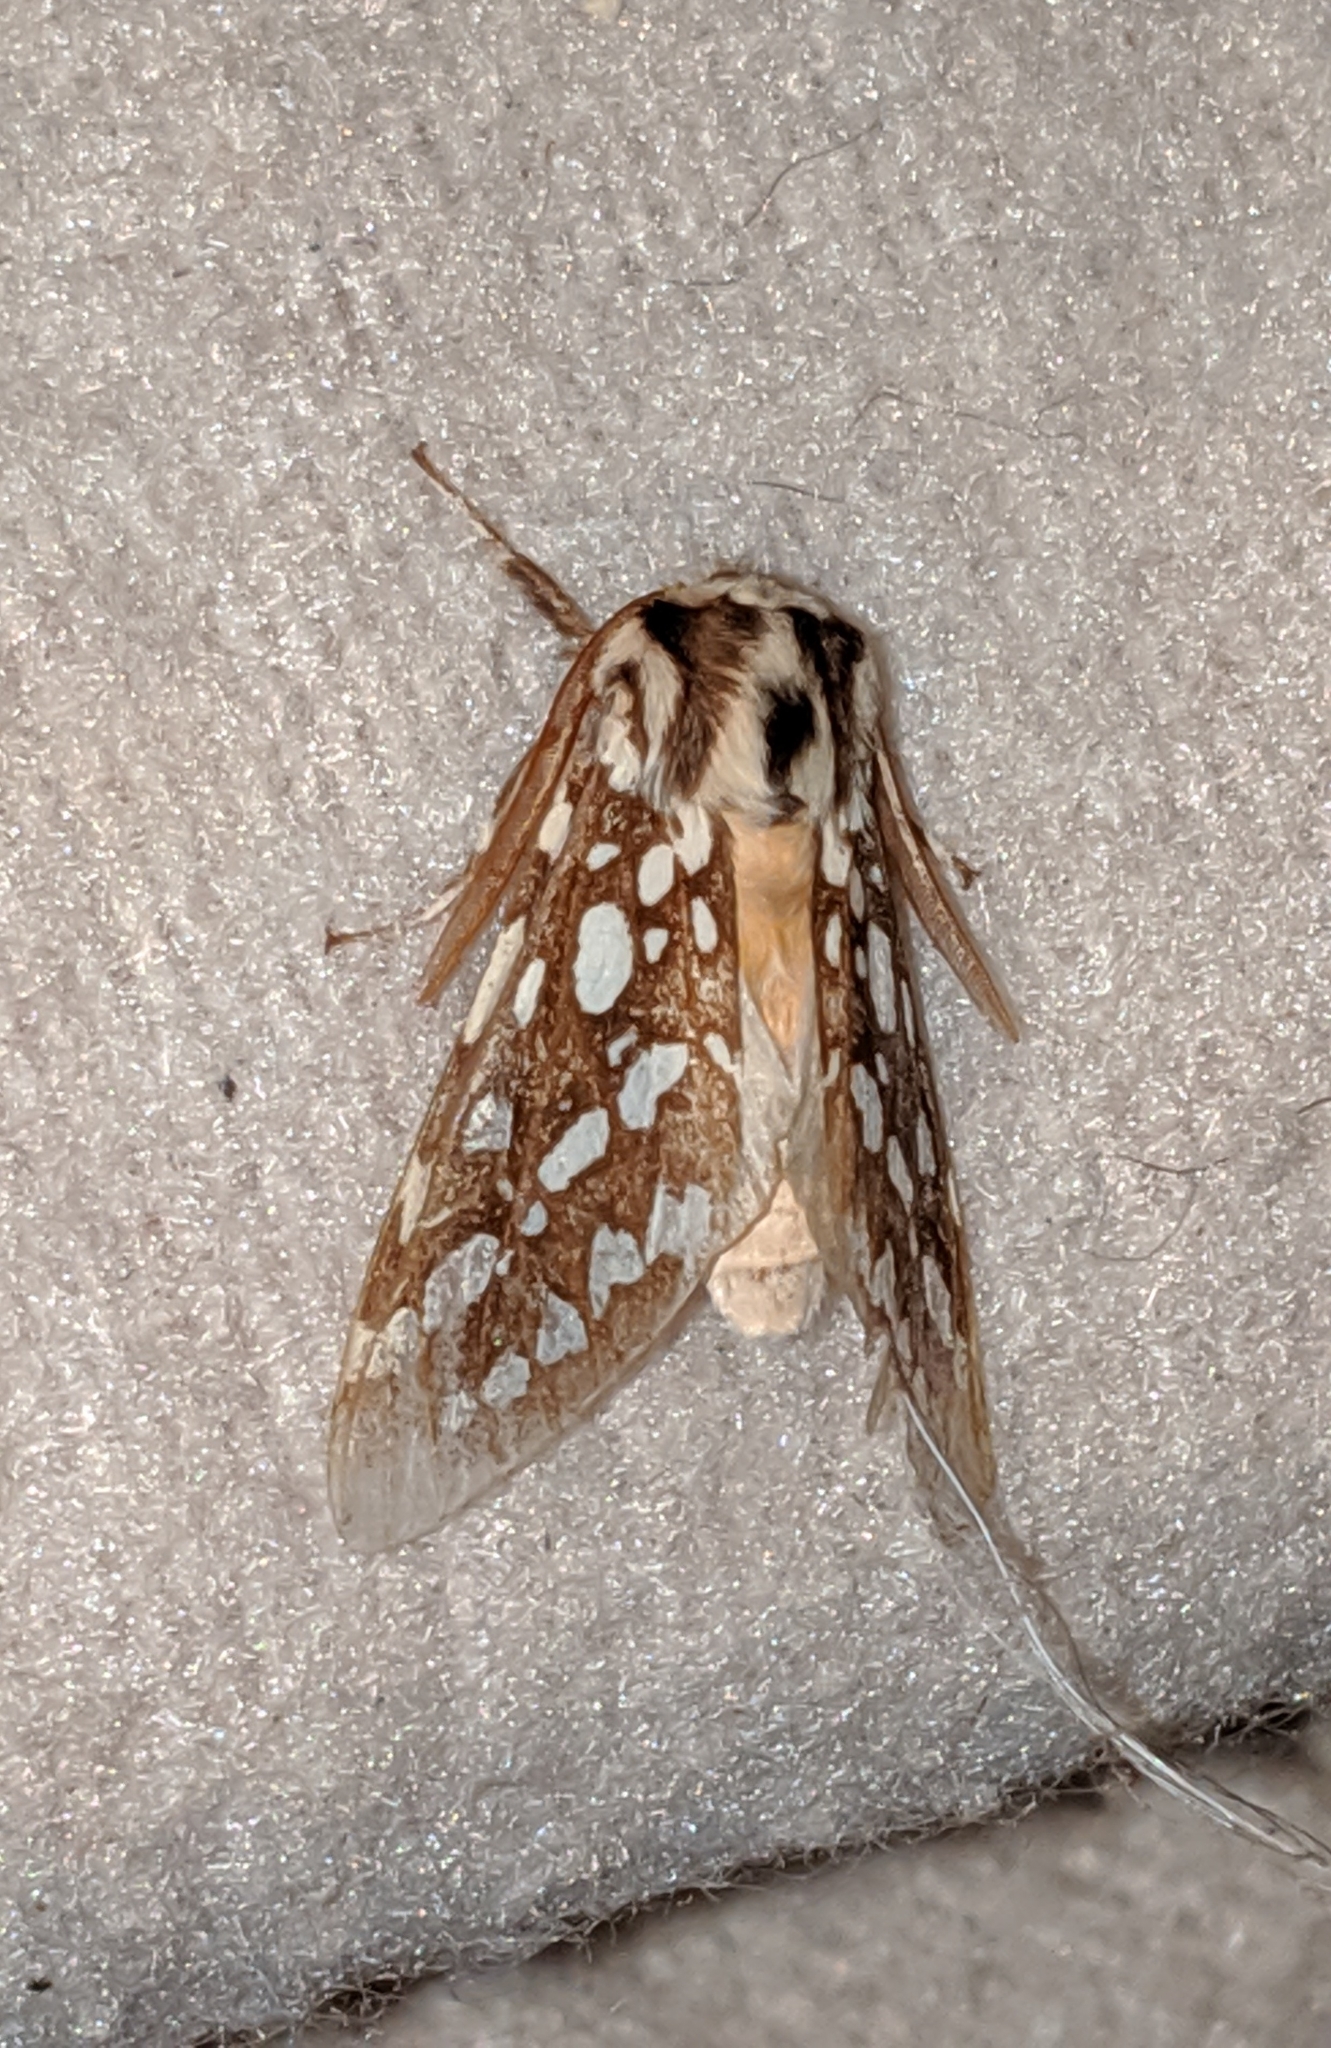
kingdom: Animalia
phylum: Arthropoda
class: Insecta
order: Lepidoptera
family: Erebidae
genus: Lophocampa
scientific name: Lophocampa argentata
